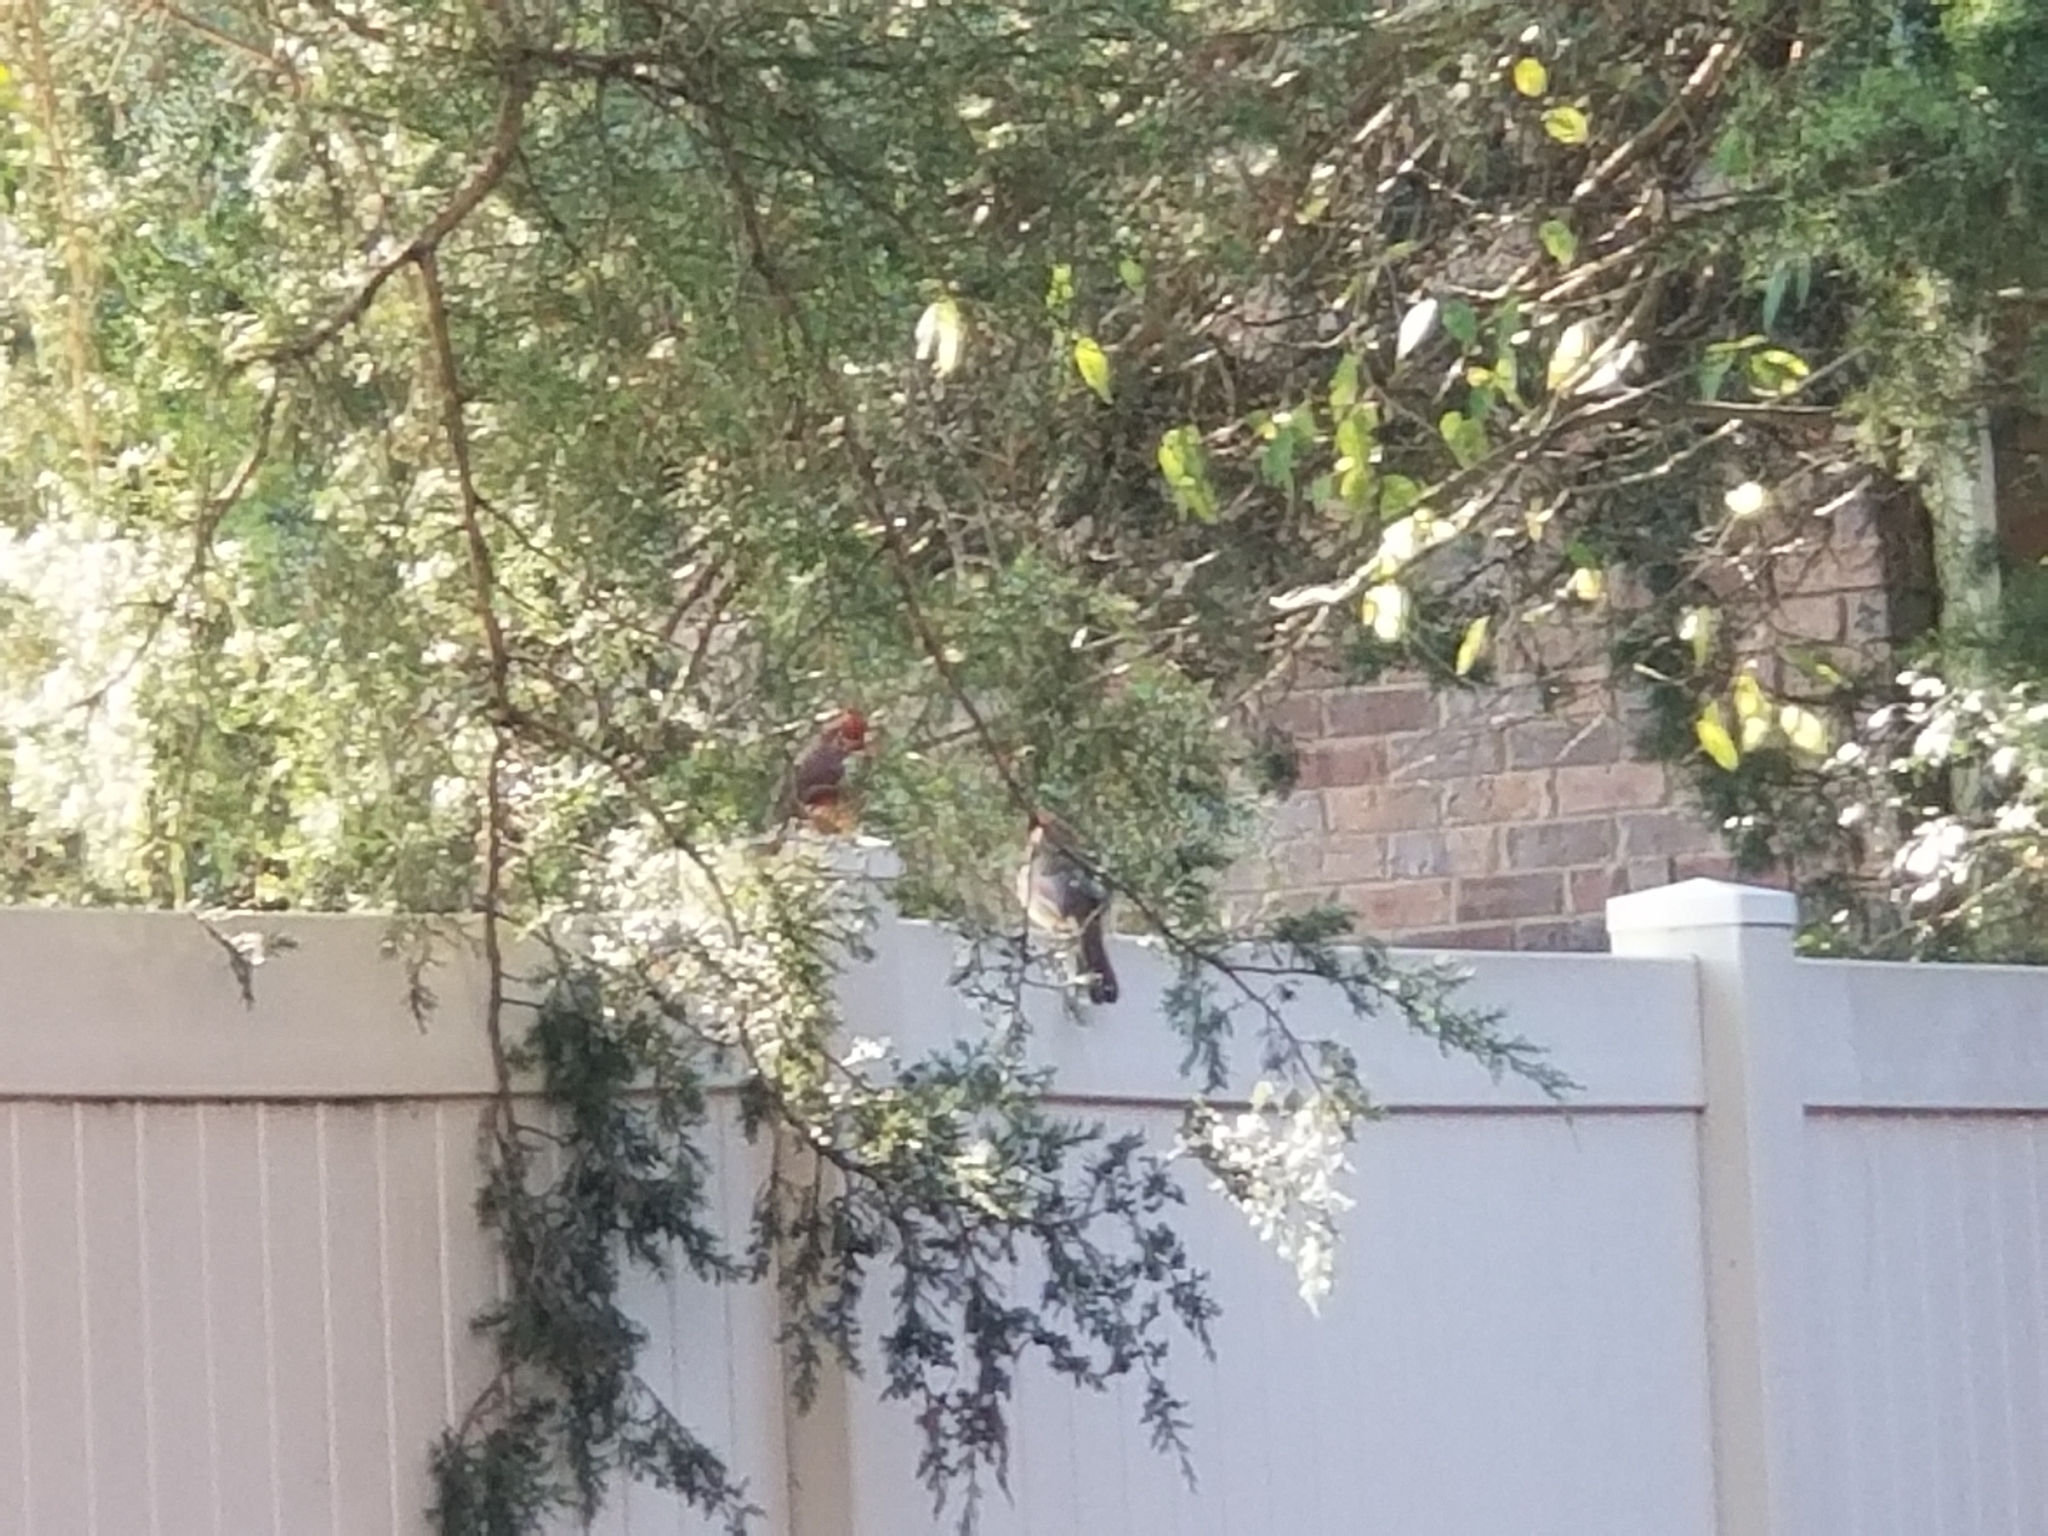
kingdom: Animalia
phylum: Chordata
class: Aves
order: Passeriformes
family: Cardinalidae
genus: Cardinalis
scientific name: Cardinalis cardinalis
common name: Northern cardinal
